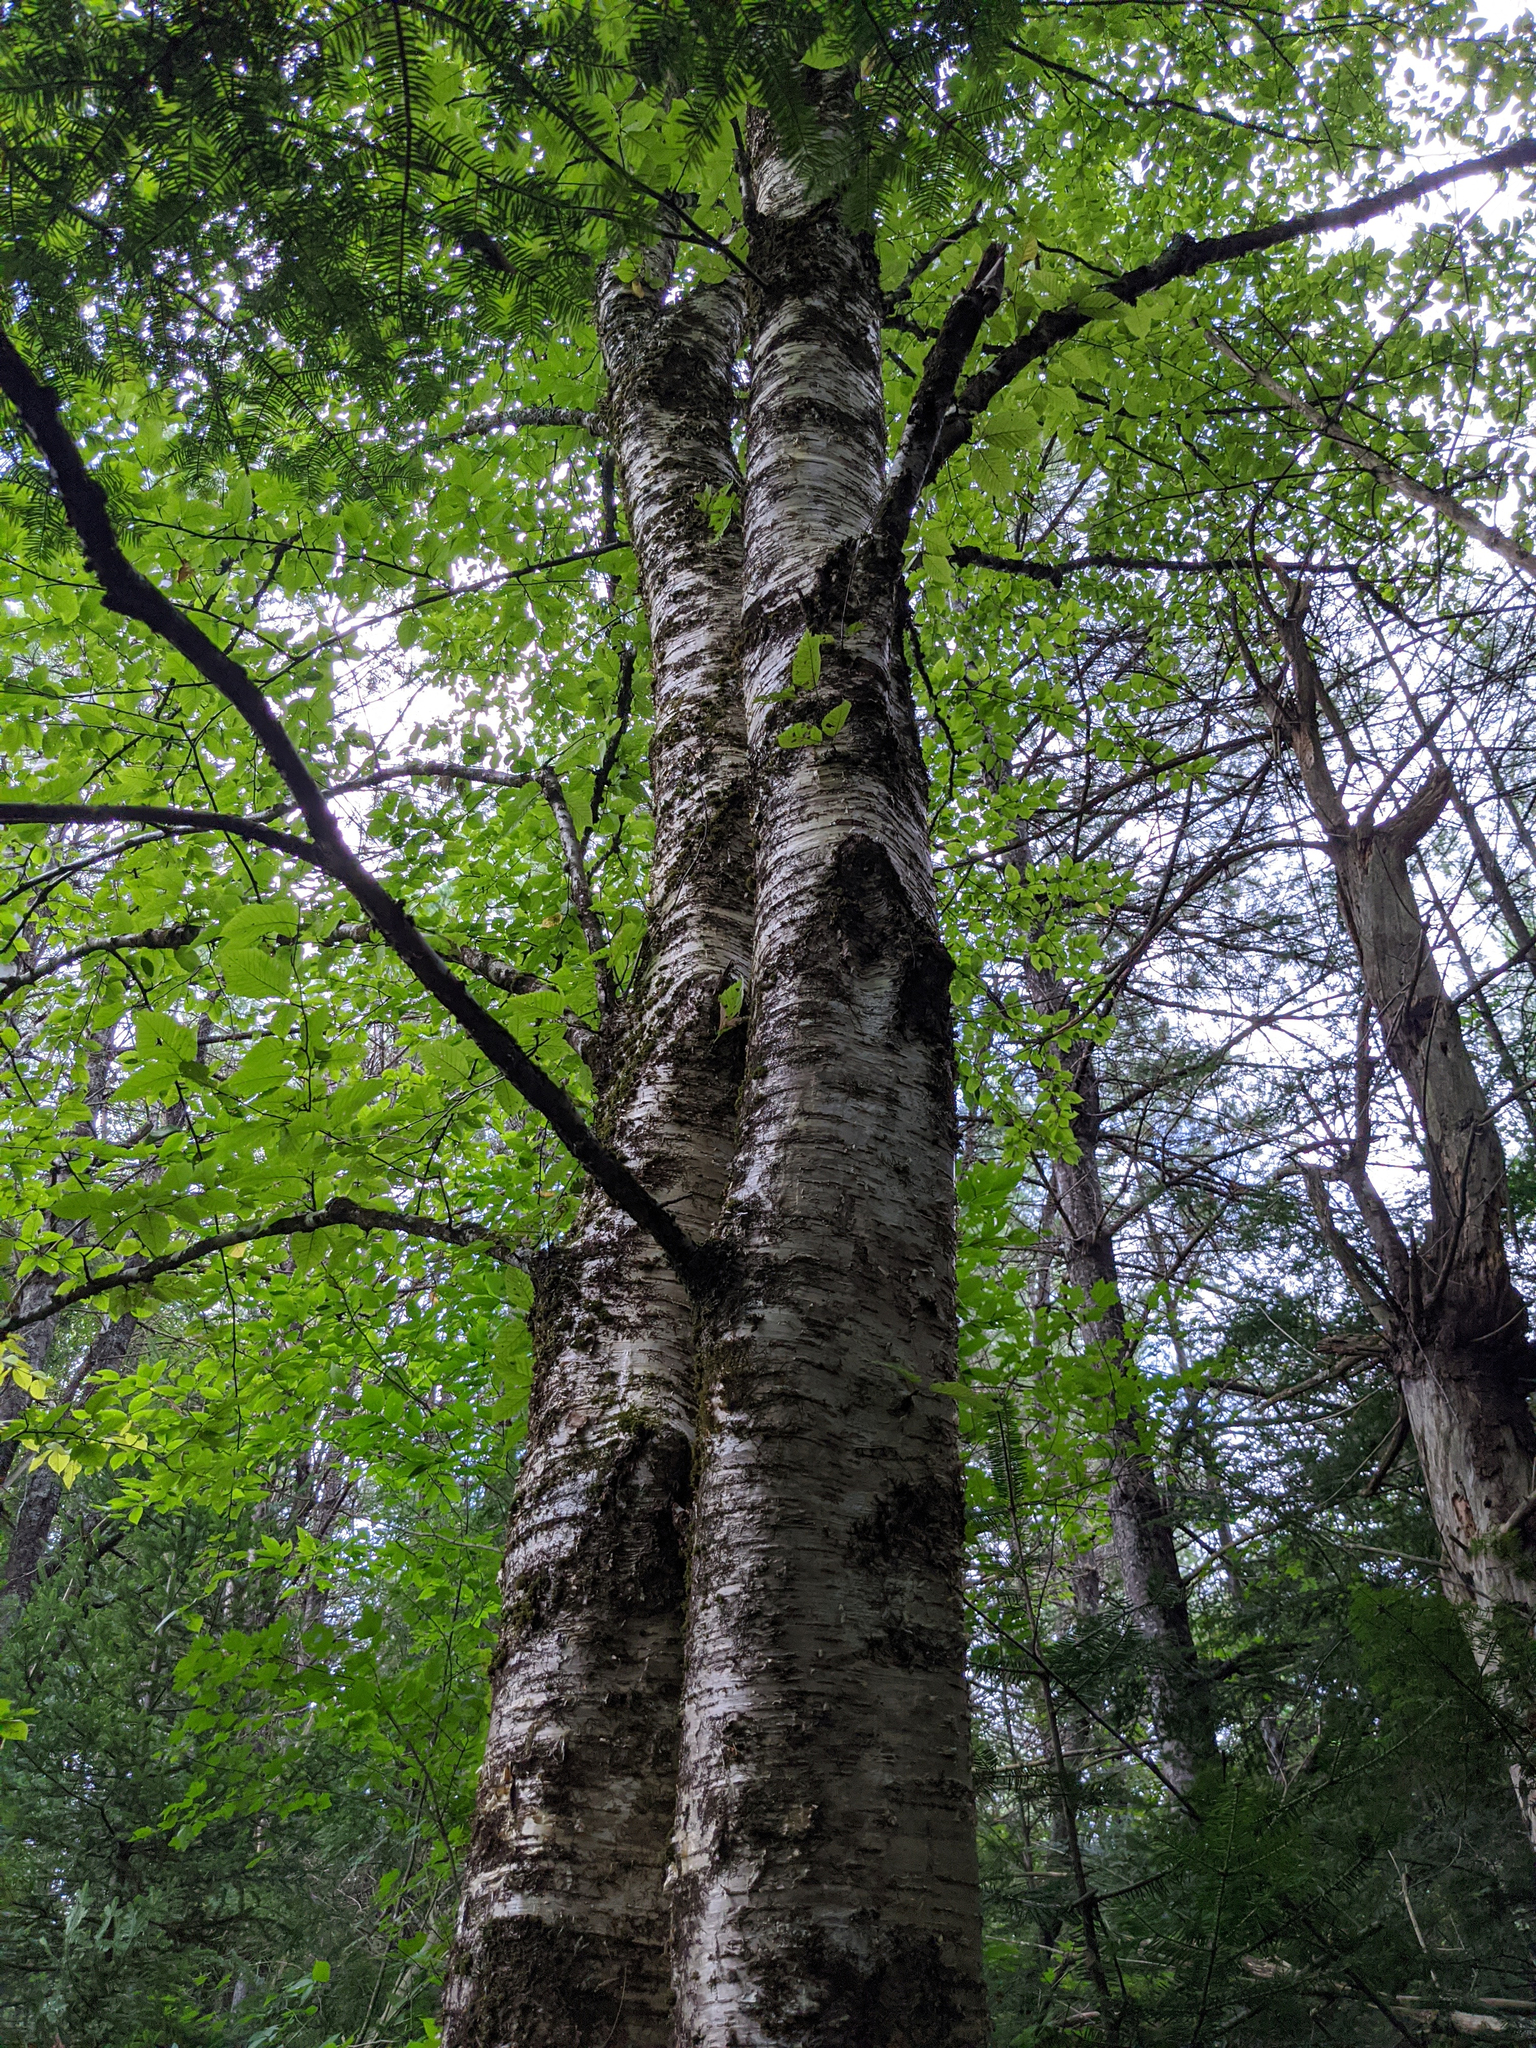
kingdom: Plantae
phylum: Tracheophyta
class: Magnoliopsida
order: Fagales
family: Betulaceae
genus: Betula
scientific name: Betula alleghaniensis
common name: Yellow birch
